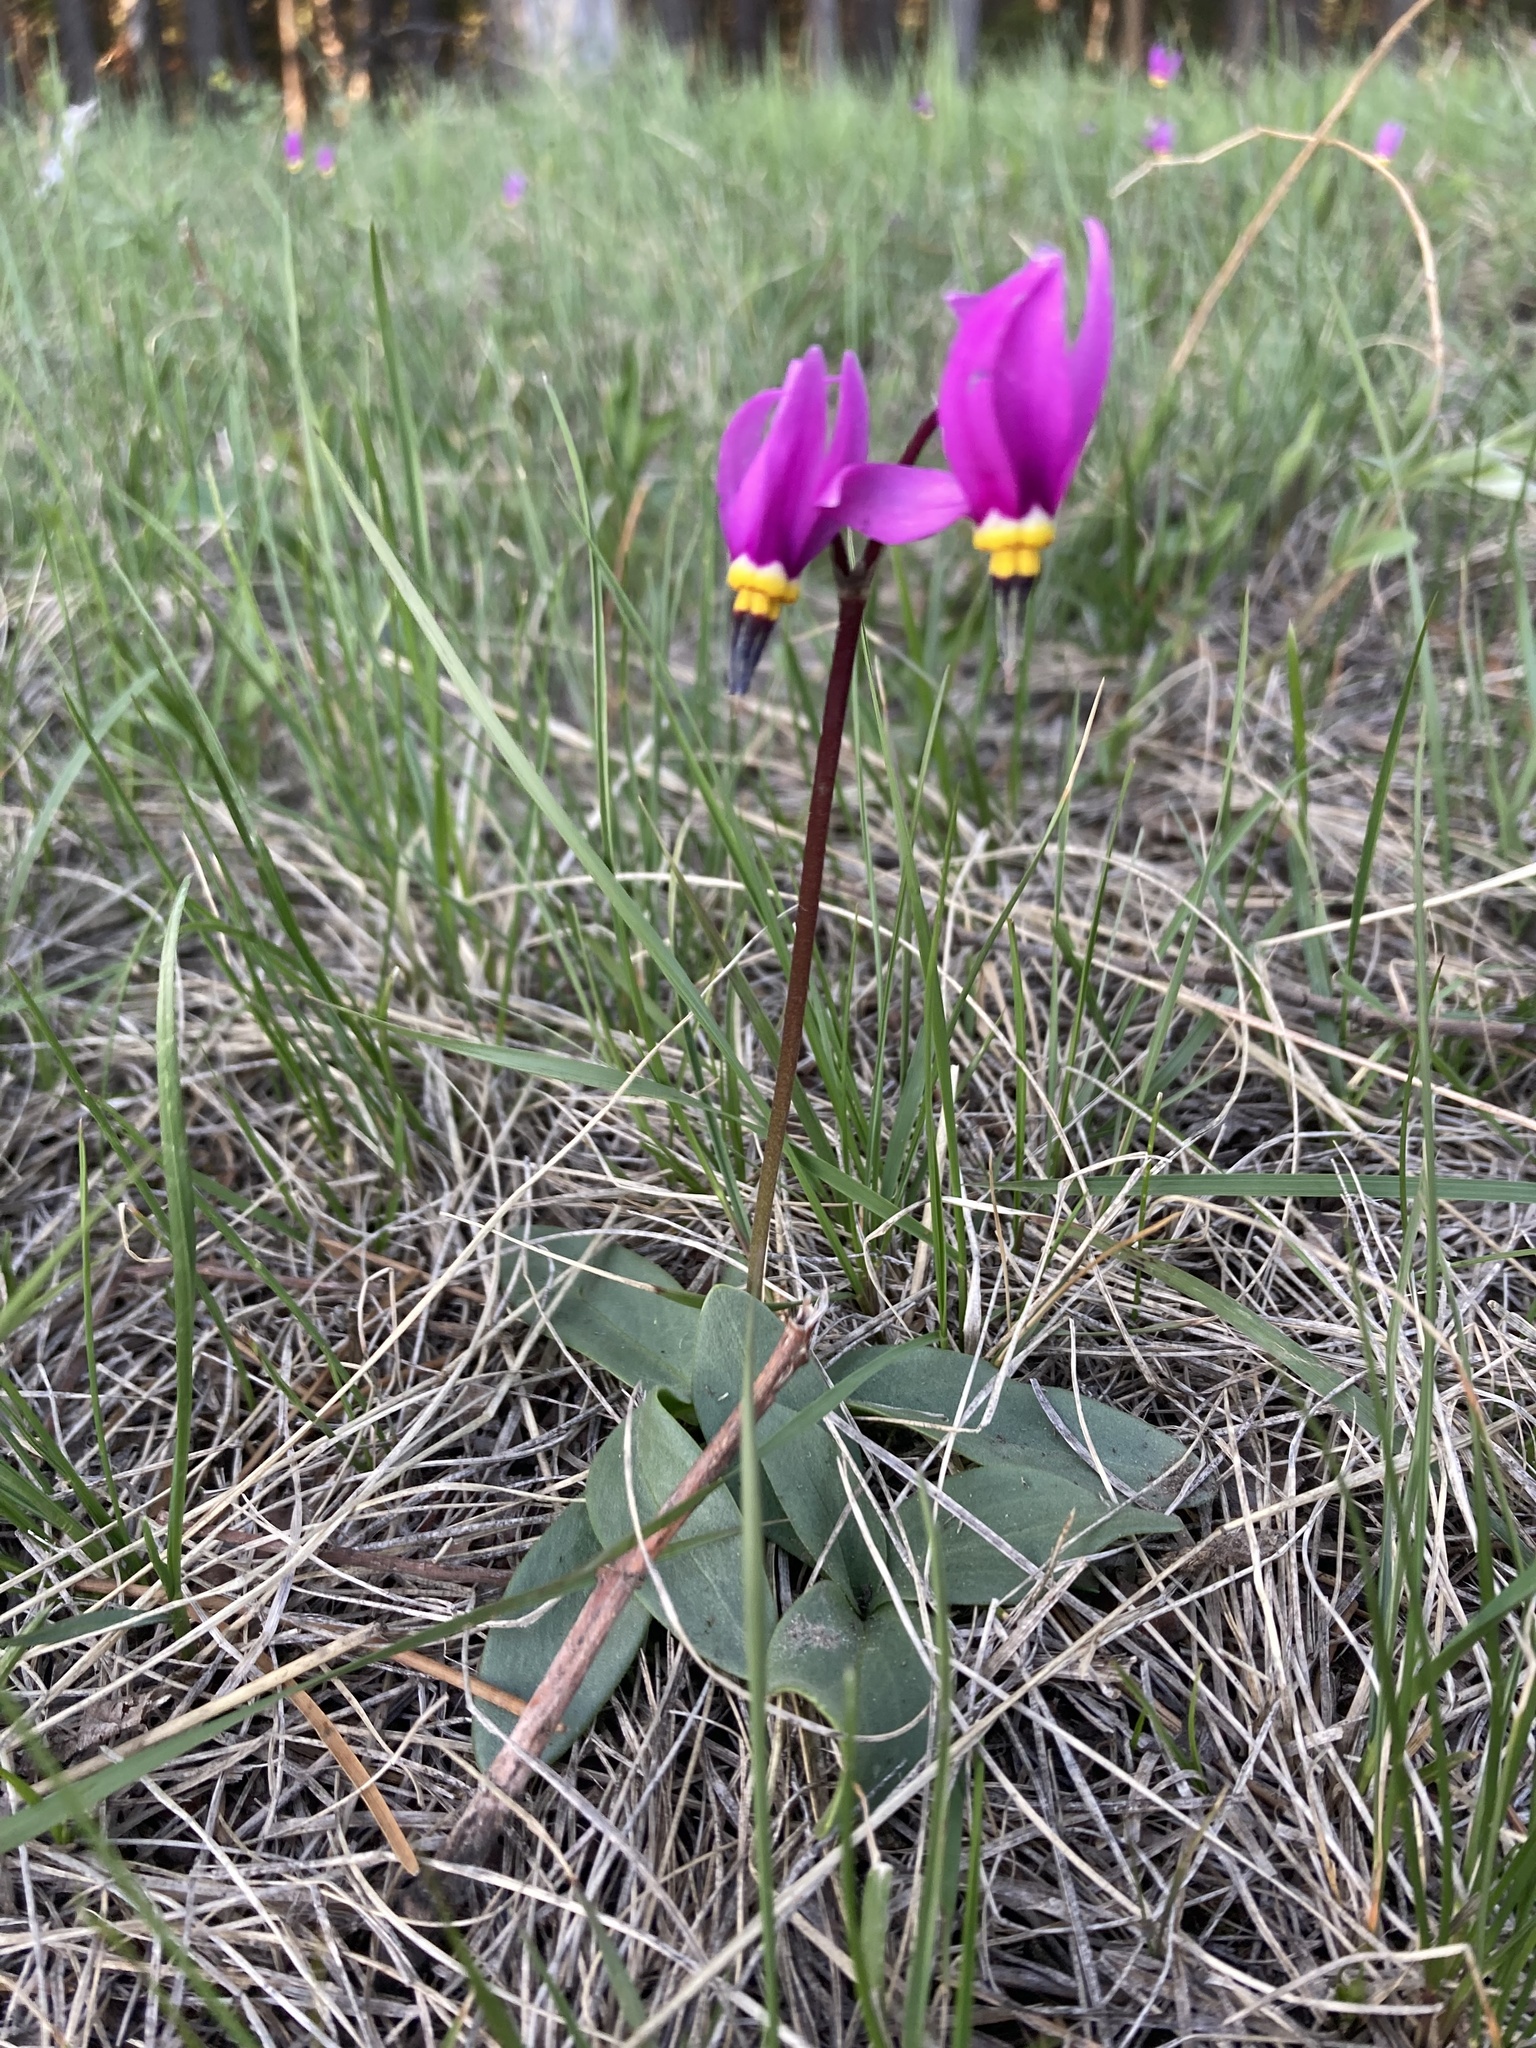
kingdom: Plantae
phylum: Tracheophyta
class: Magnoliopsida
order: Ericales
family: Primulaceae
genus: Dodecatheon
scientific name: Dodecatheon pulchellum
